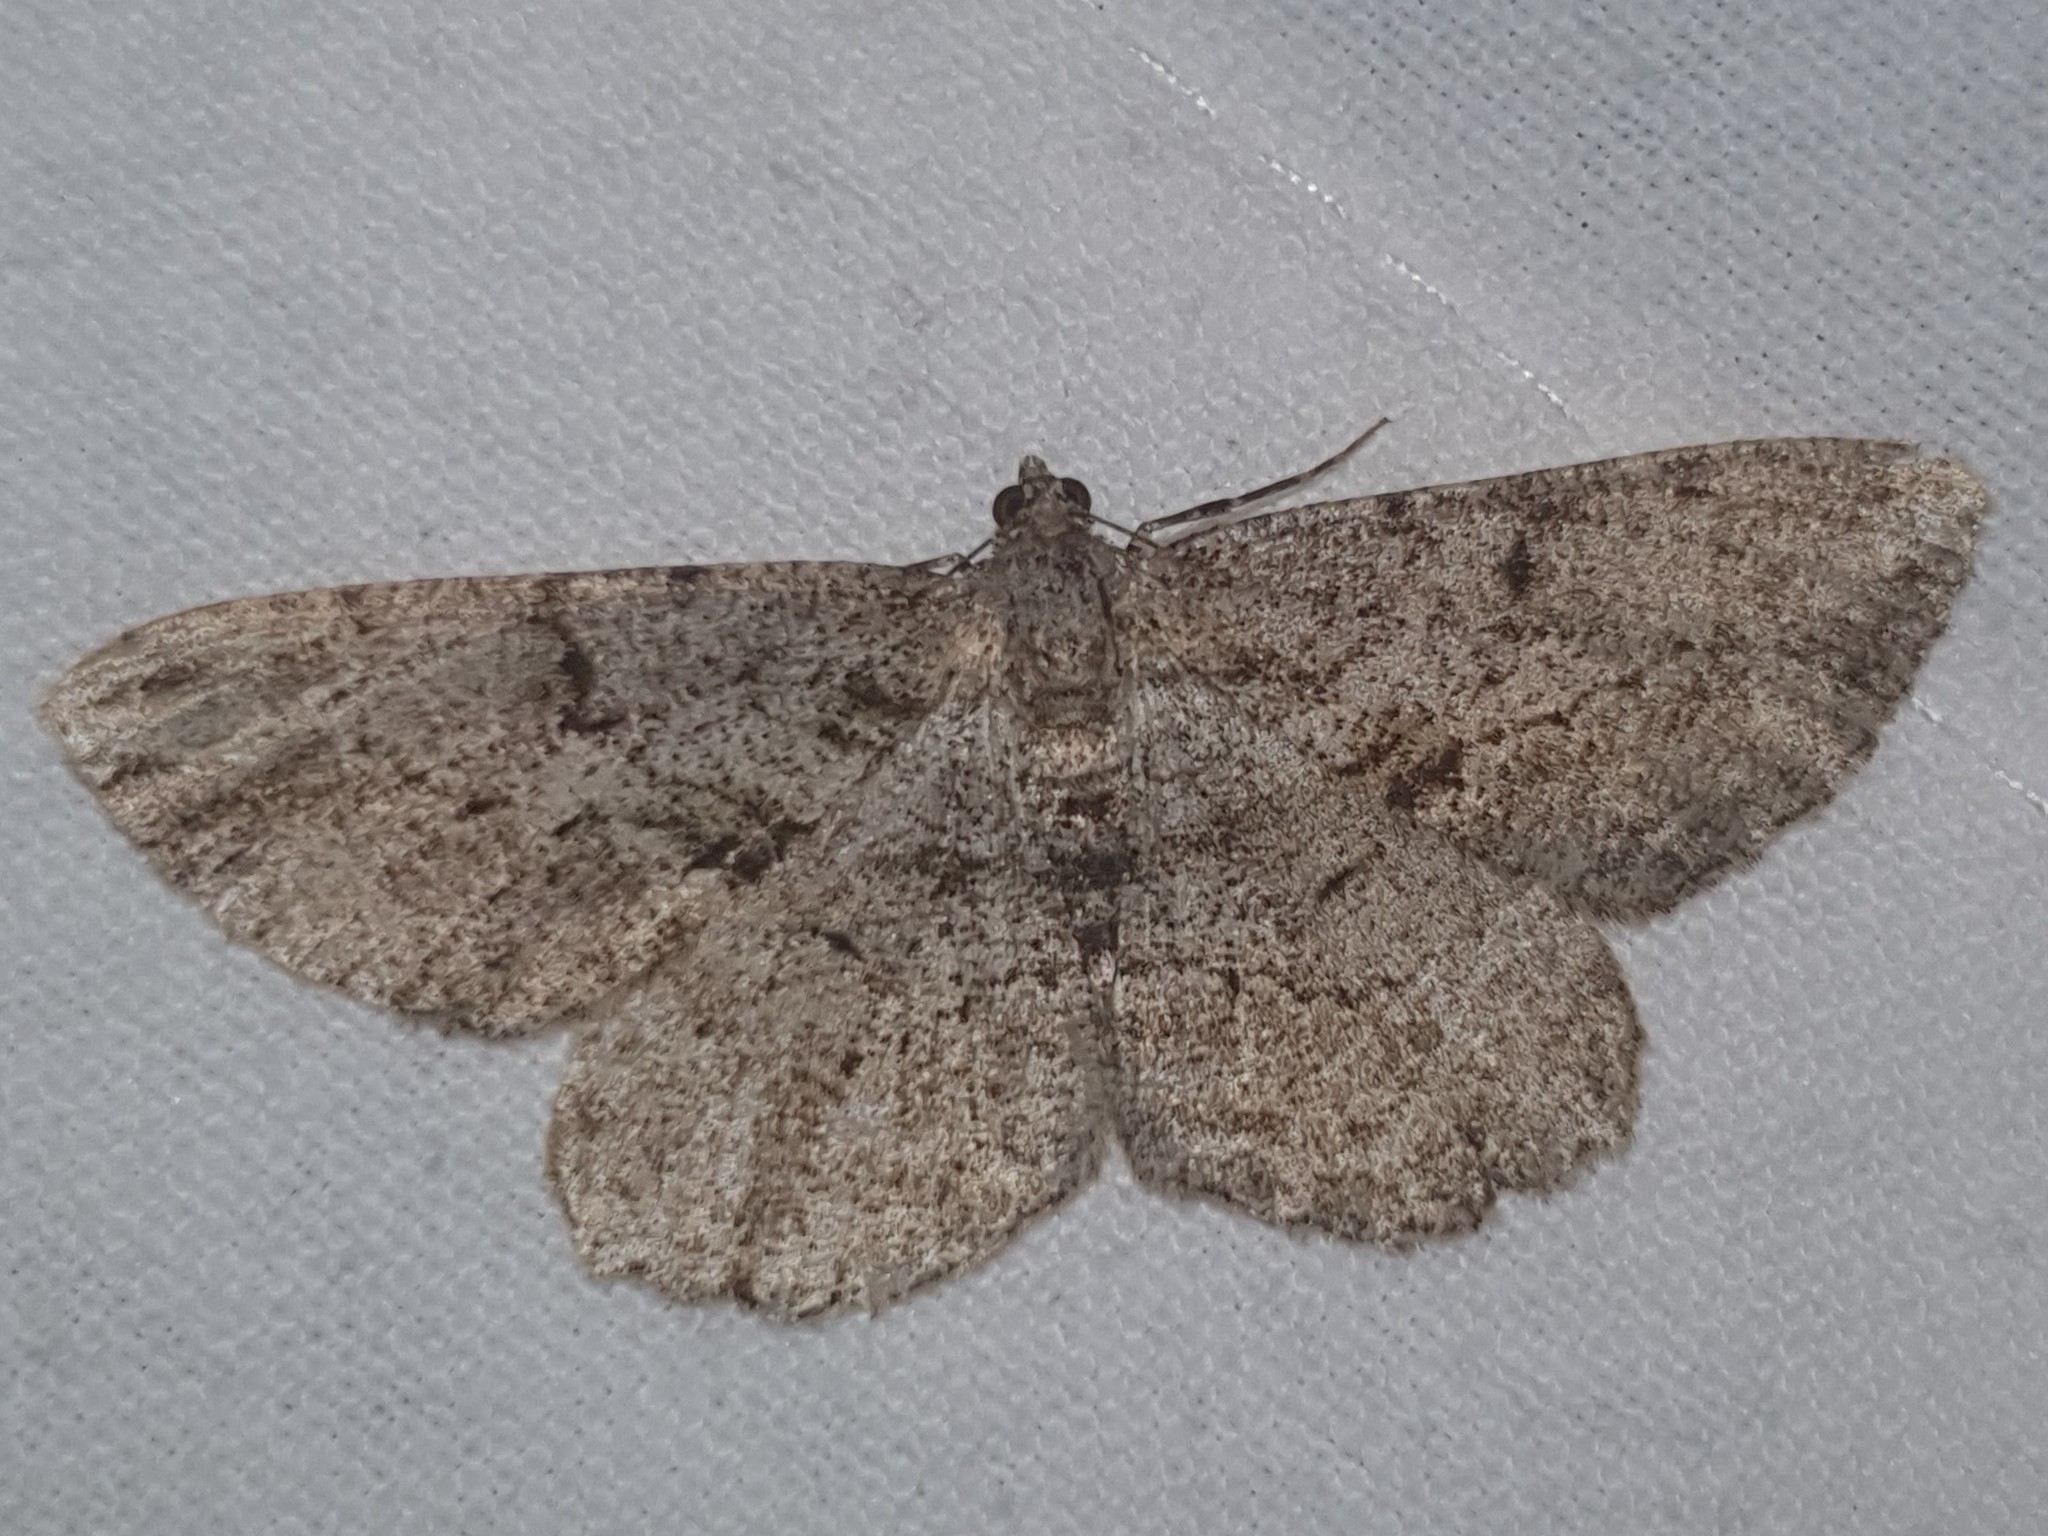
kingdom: Animalia
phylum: Arthropoda
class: Insecta
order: Lepidoptera
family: Geometridae
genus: Peribatodes
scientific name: Peribatodes rhomboidaria
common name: Willow beauty
